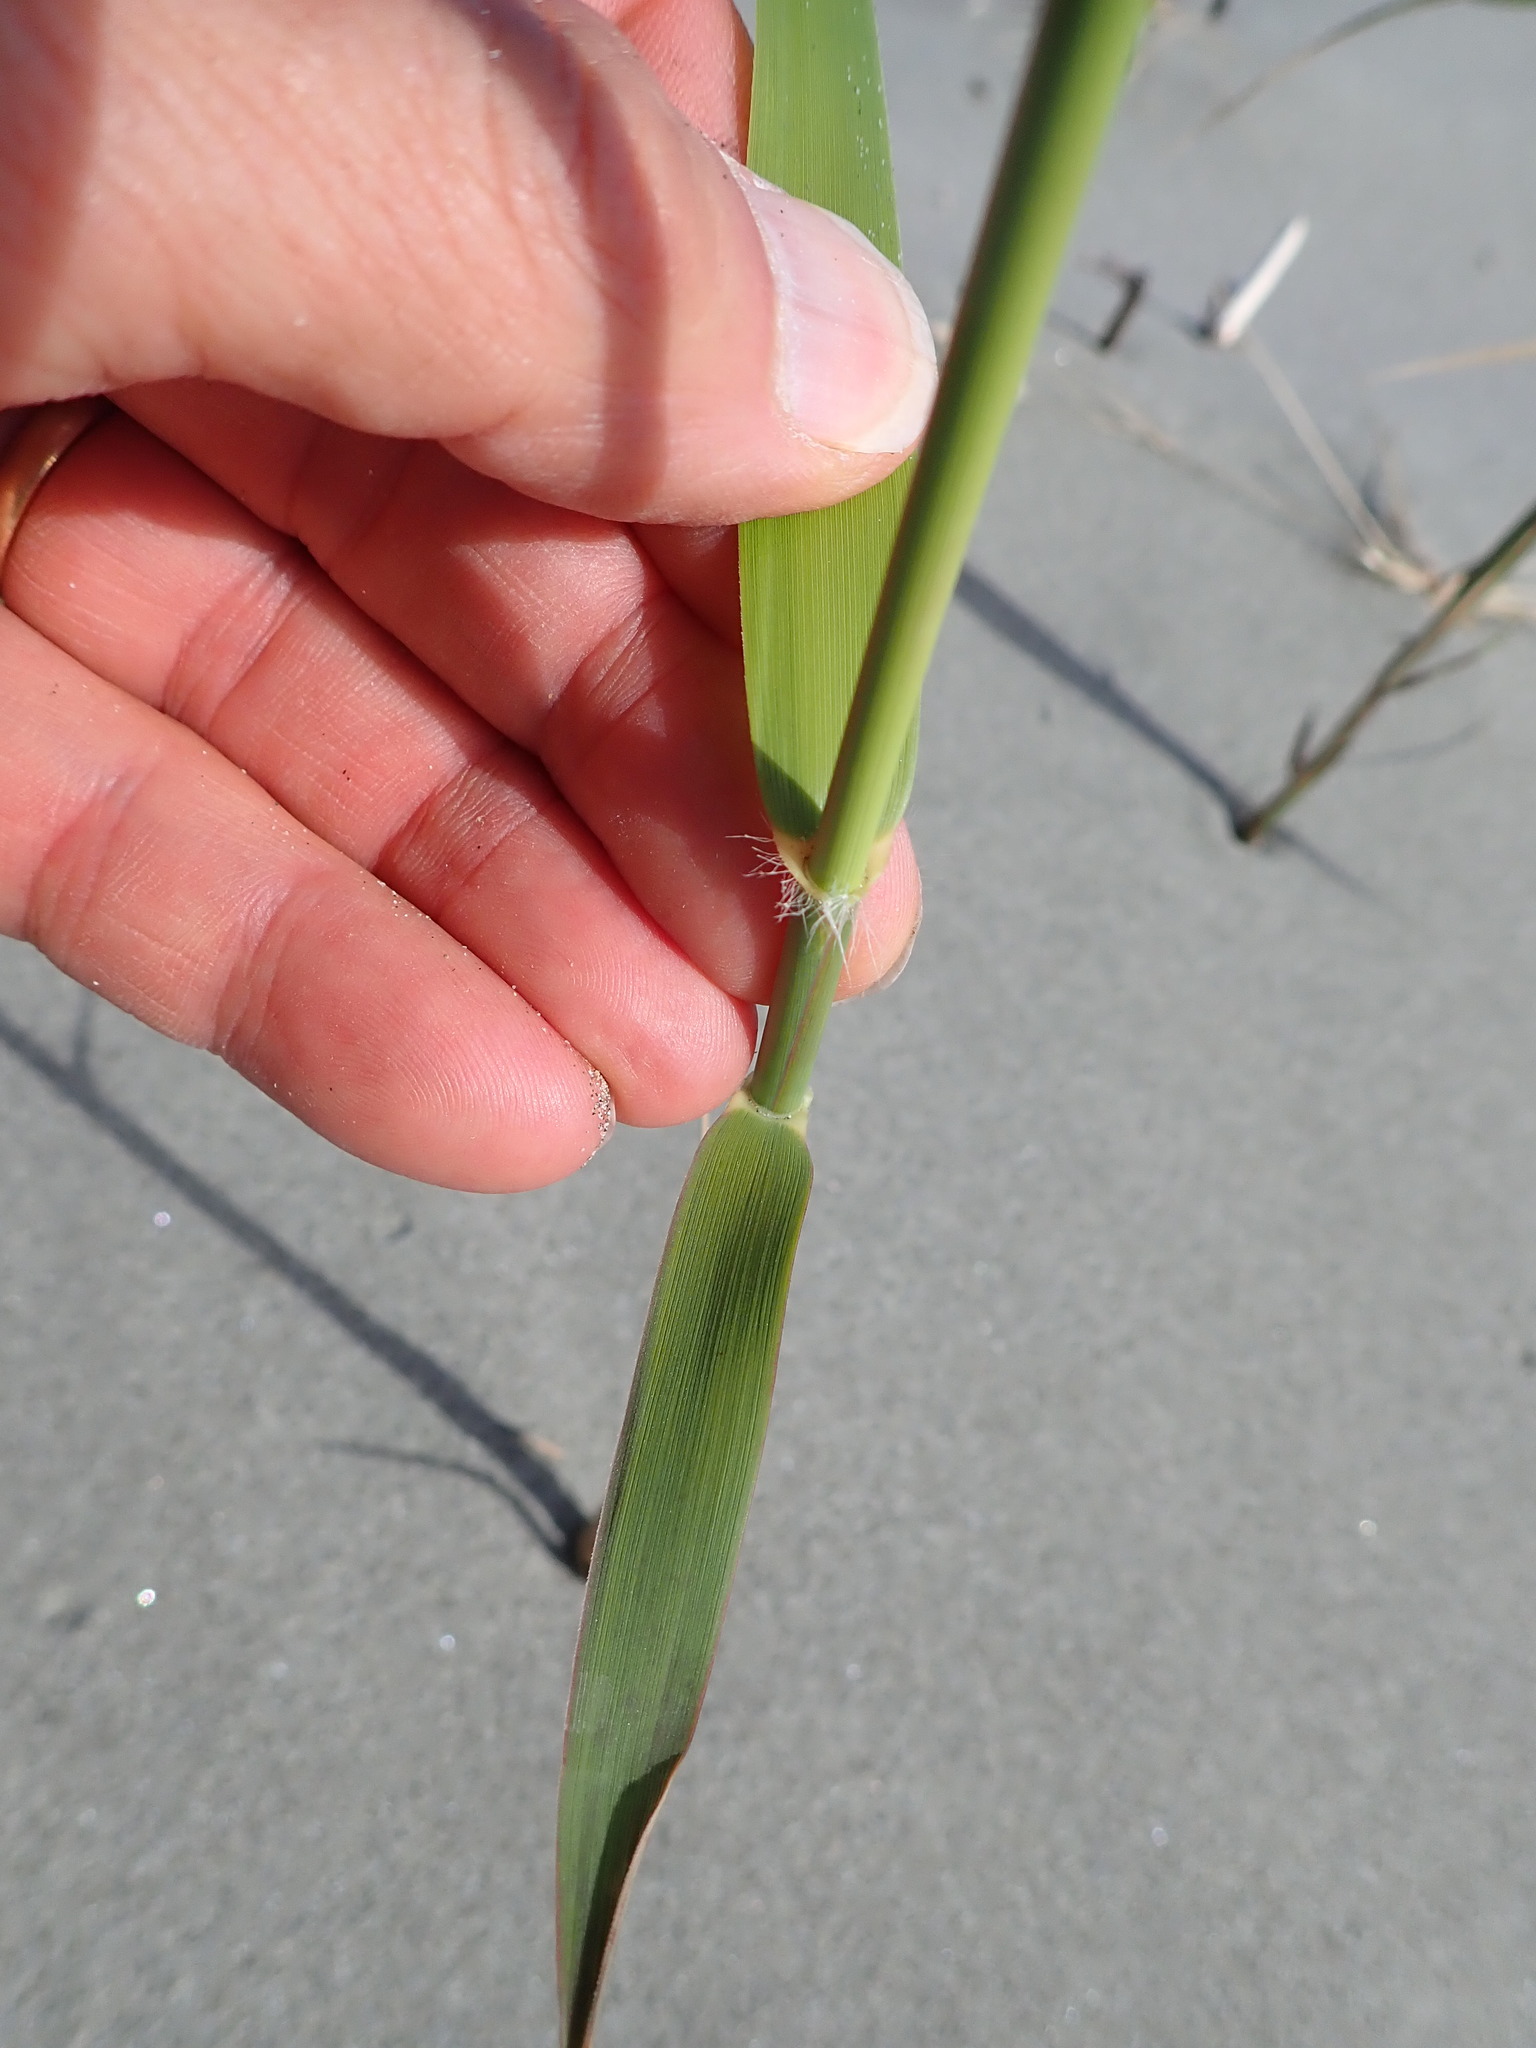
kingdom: Plantae
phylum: Tracheophyta
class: Liliopsida
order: Poales
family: Poaceae
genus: Phragmites
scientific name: Phragmites karka
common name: Tropical reed
